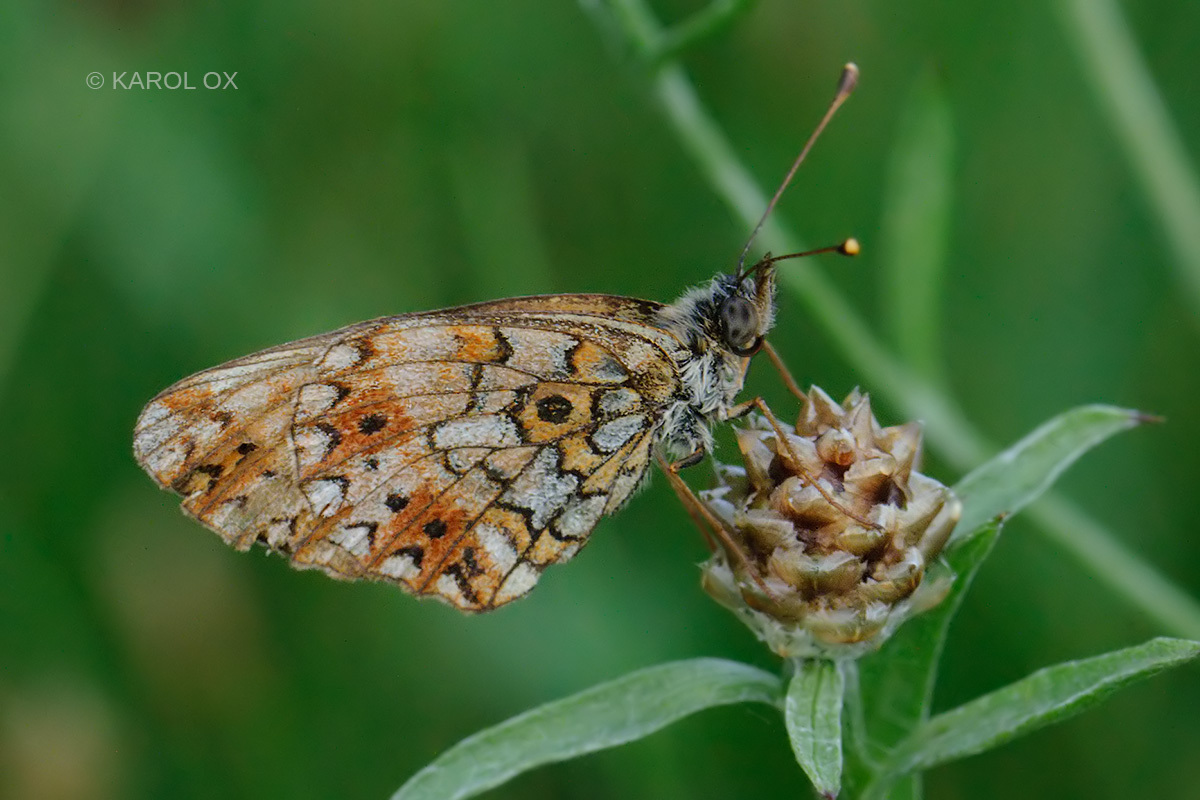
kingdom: Animalia
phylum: Arthropoda
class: Insecta
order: Lepidoptera
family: Nymphalidae
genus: Boloria
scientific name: Boloria selene
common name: Small pearl-bordered fritillary
